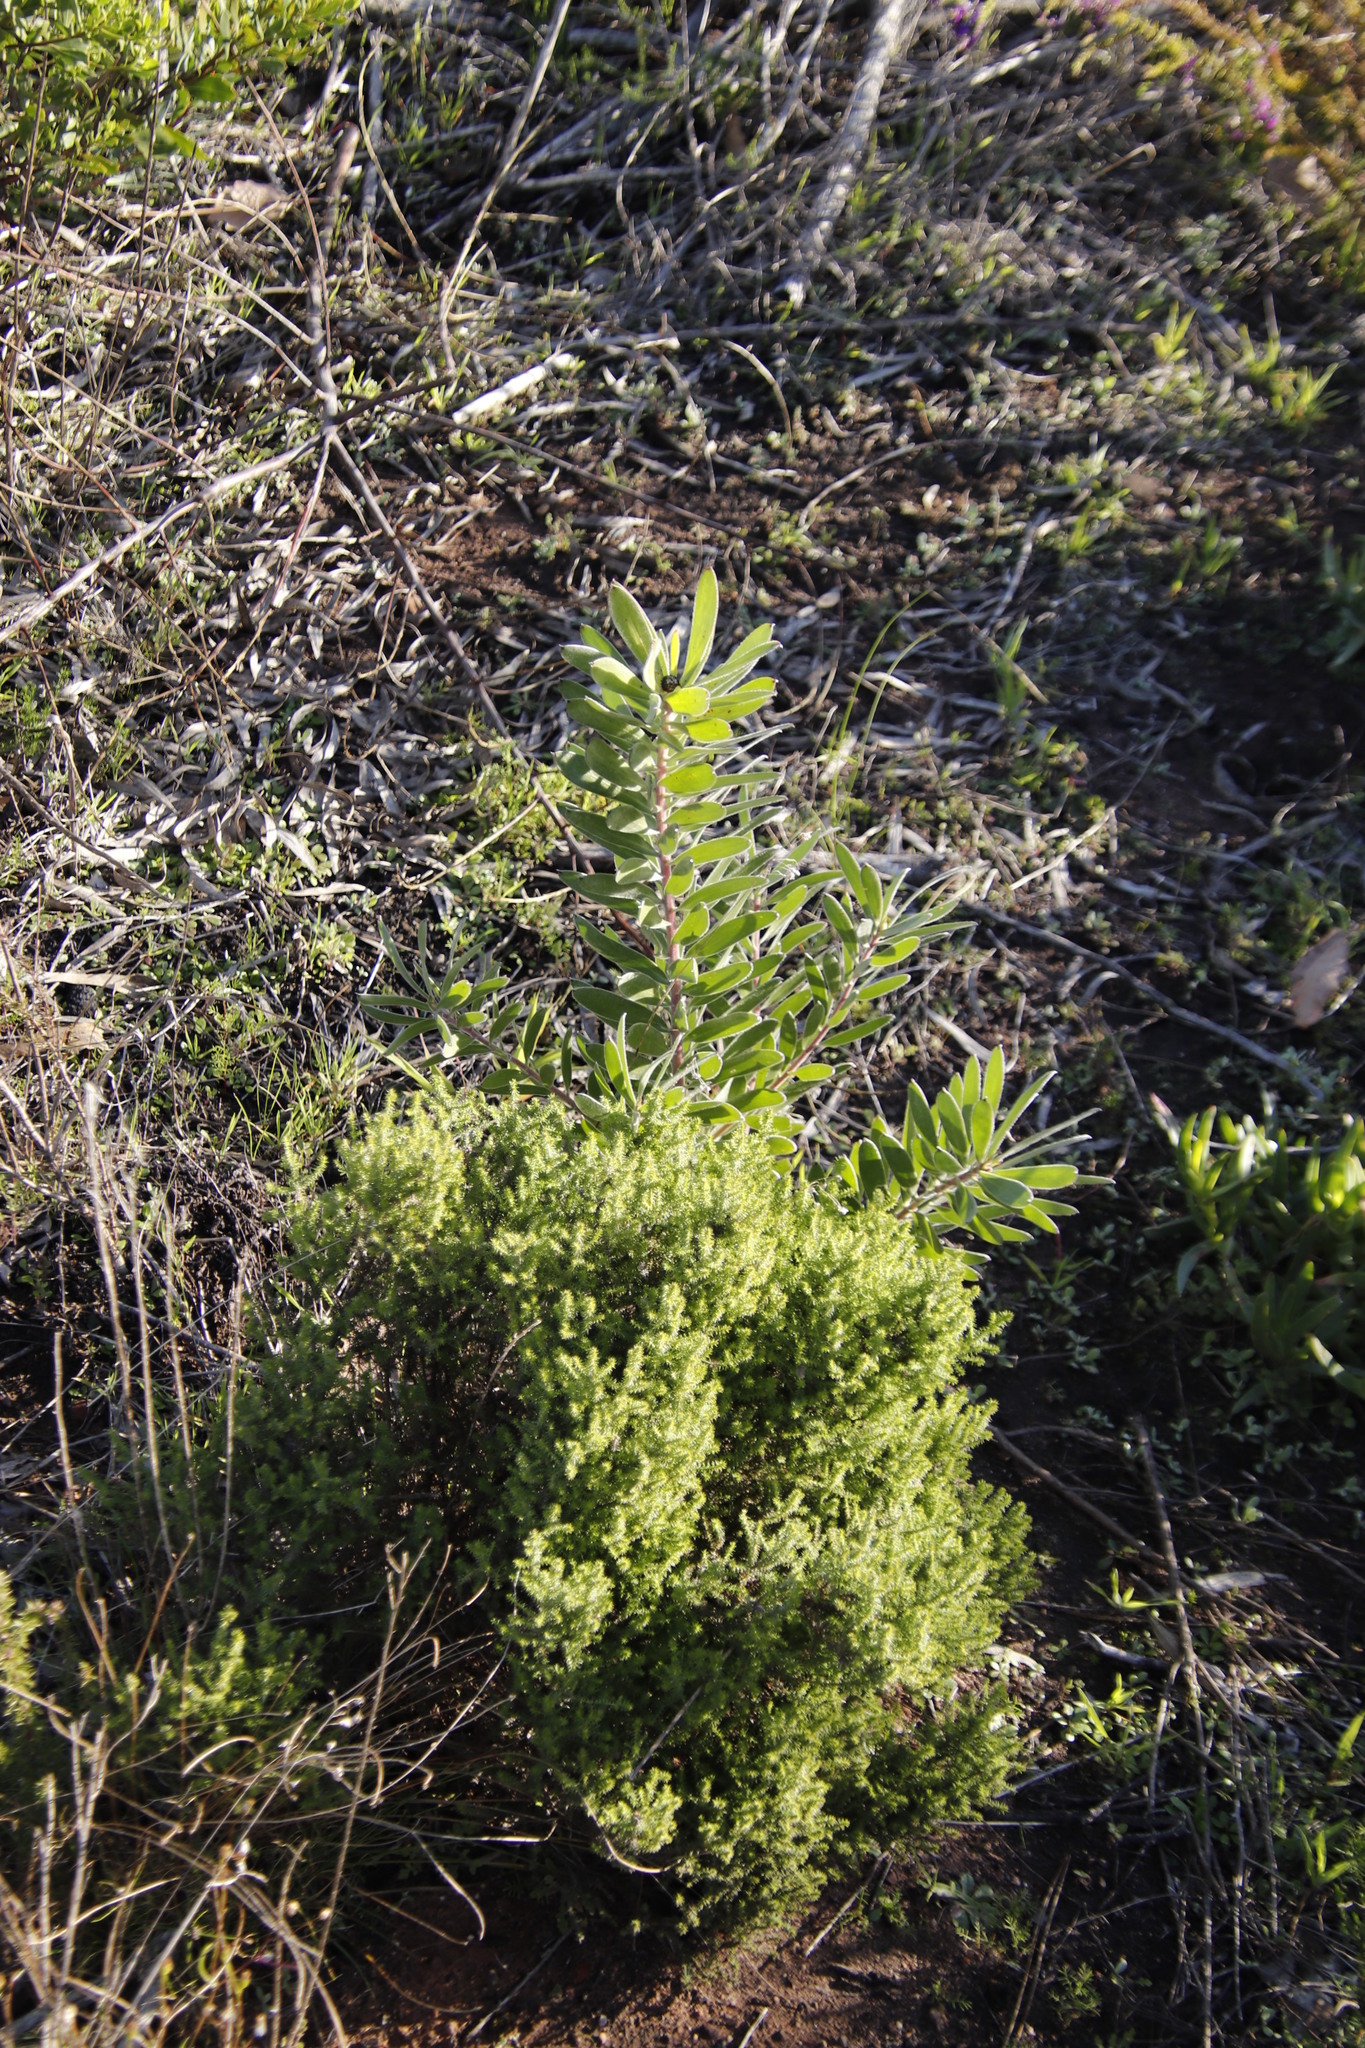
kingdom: Plantae
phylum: Tracheophyta
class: Magnoliopsida
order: Proteales
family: Proteaceae
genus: Leucadendron
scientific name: Leucadendron laureolum
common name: Golden sunshinebush
